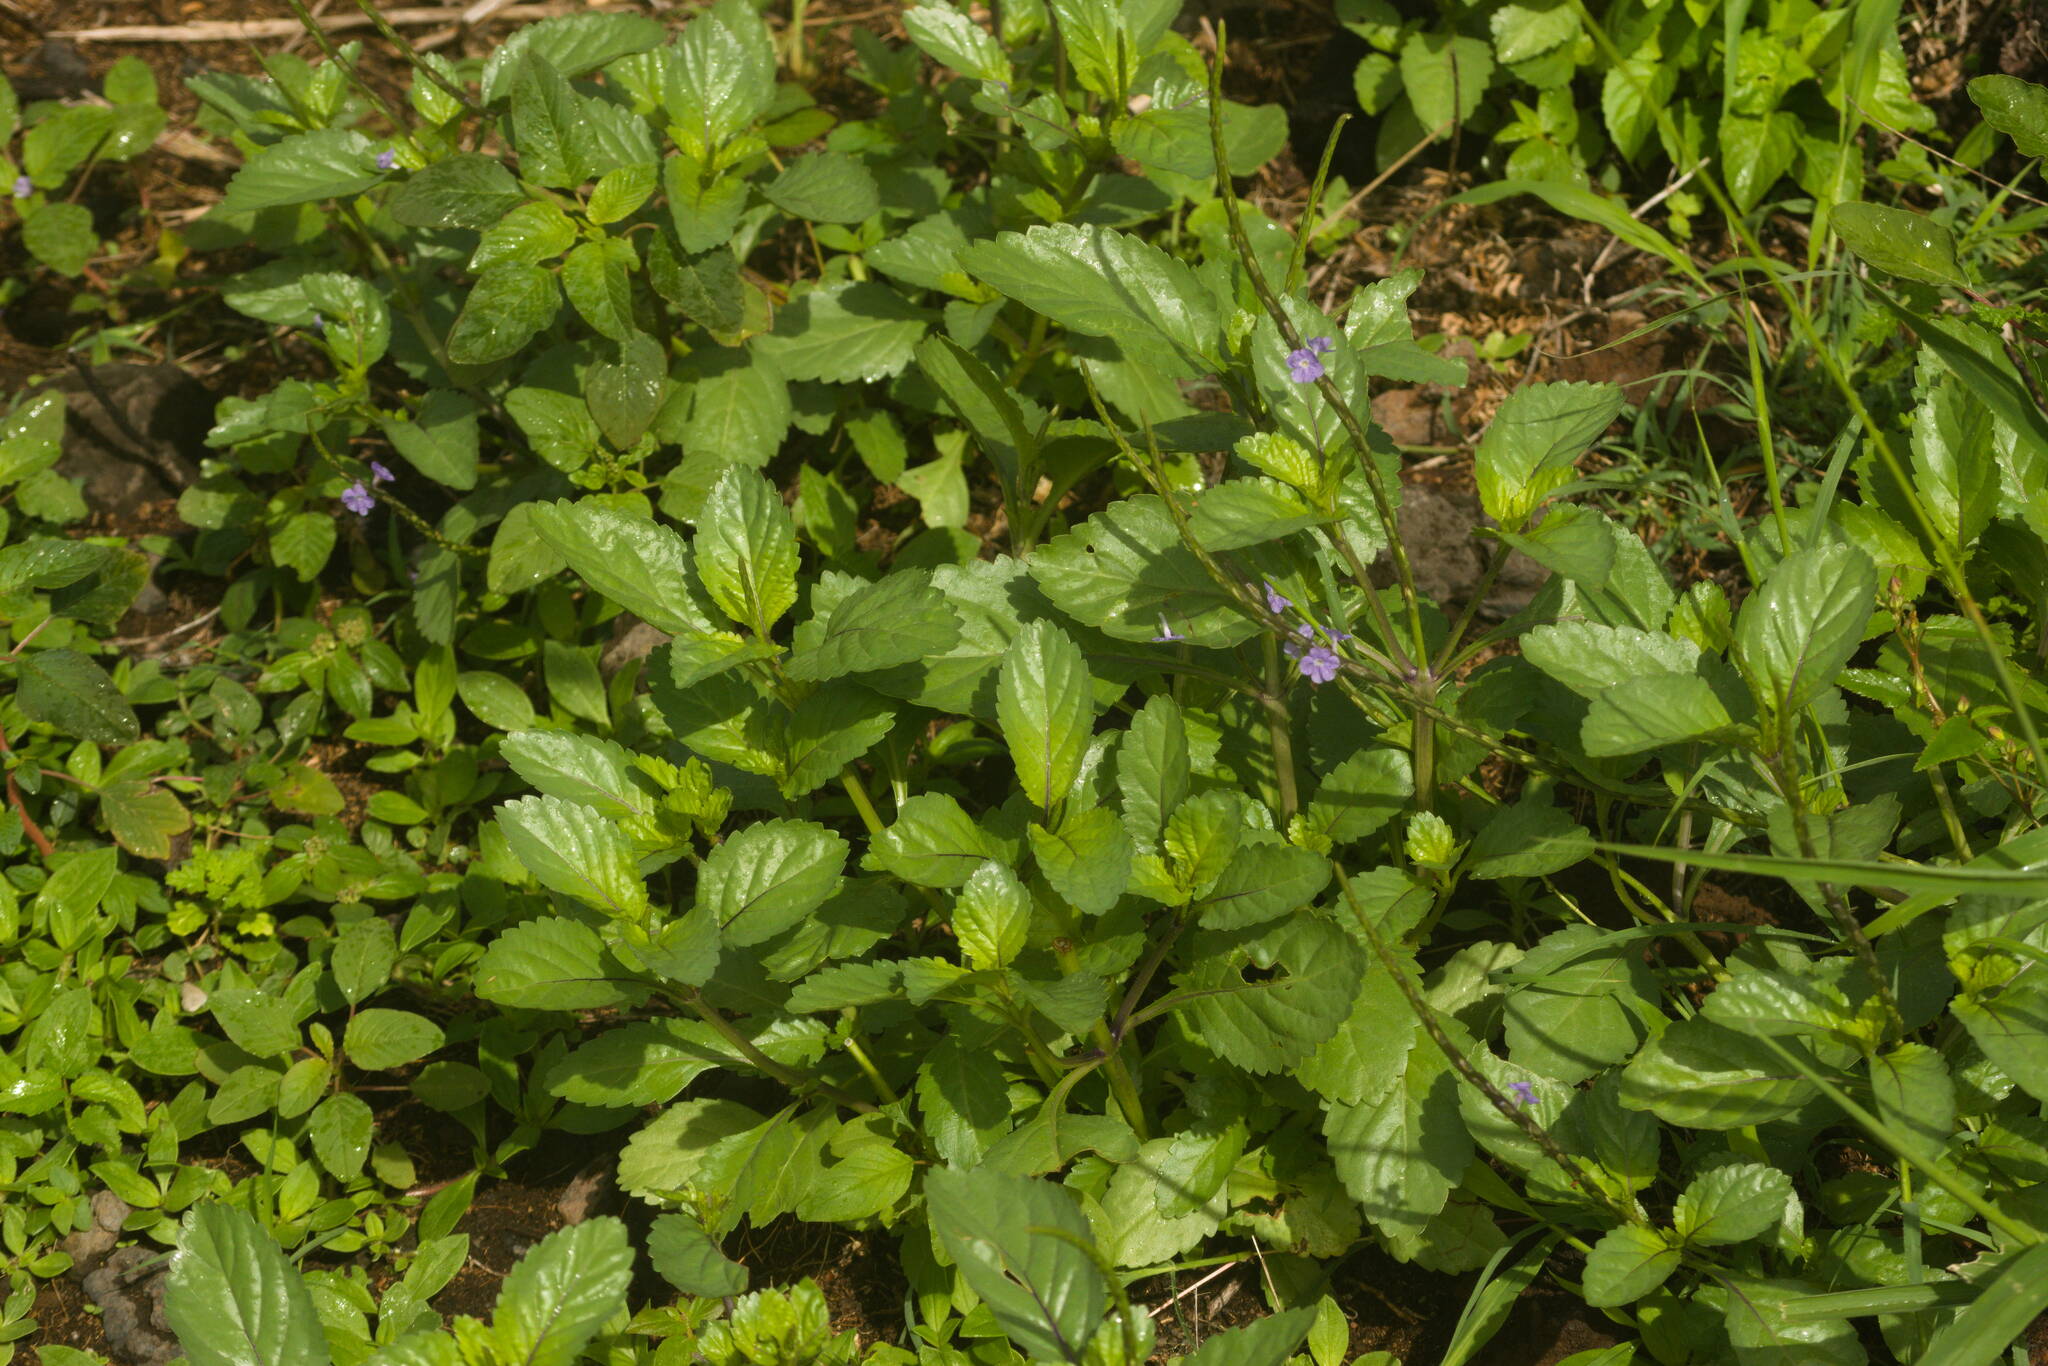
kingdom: Plantae
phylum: Tracheophyta
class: Magnoliopsida
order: Lamiales
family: Verbenaceae
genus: Stachytarpheta
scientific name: Stachytarpheta jamaicensis
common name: Light-blue snakeweed
